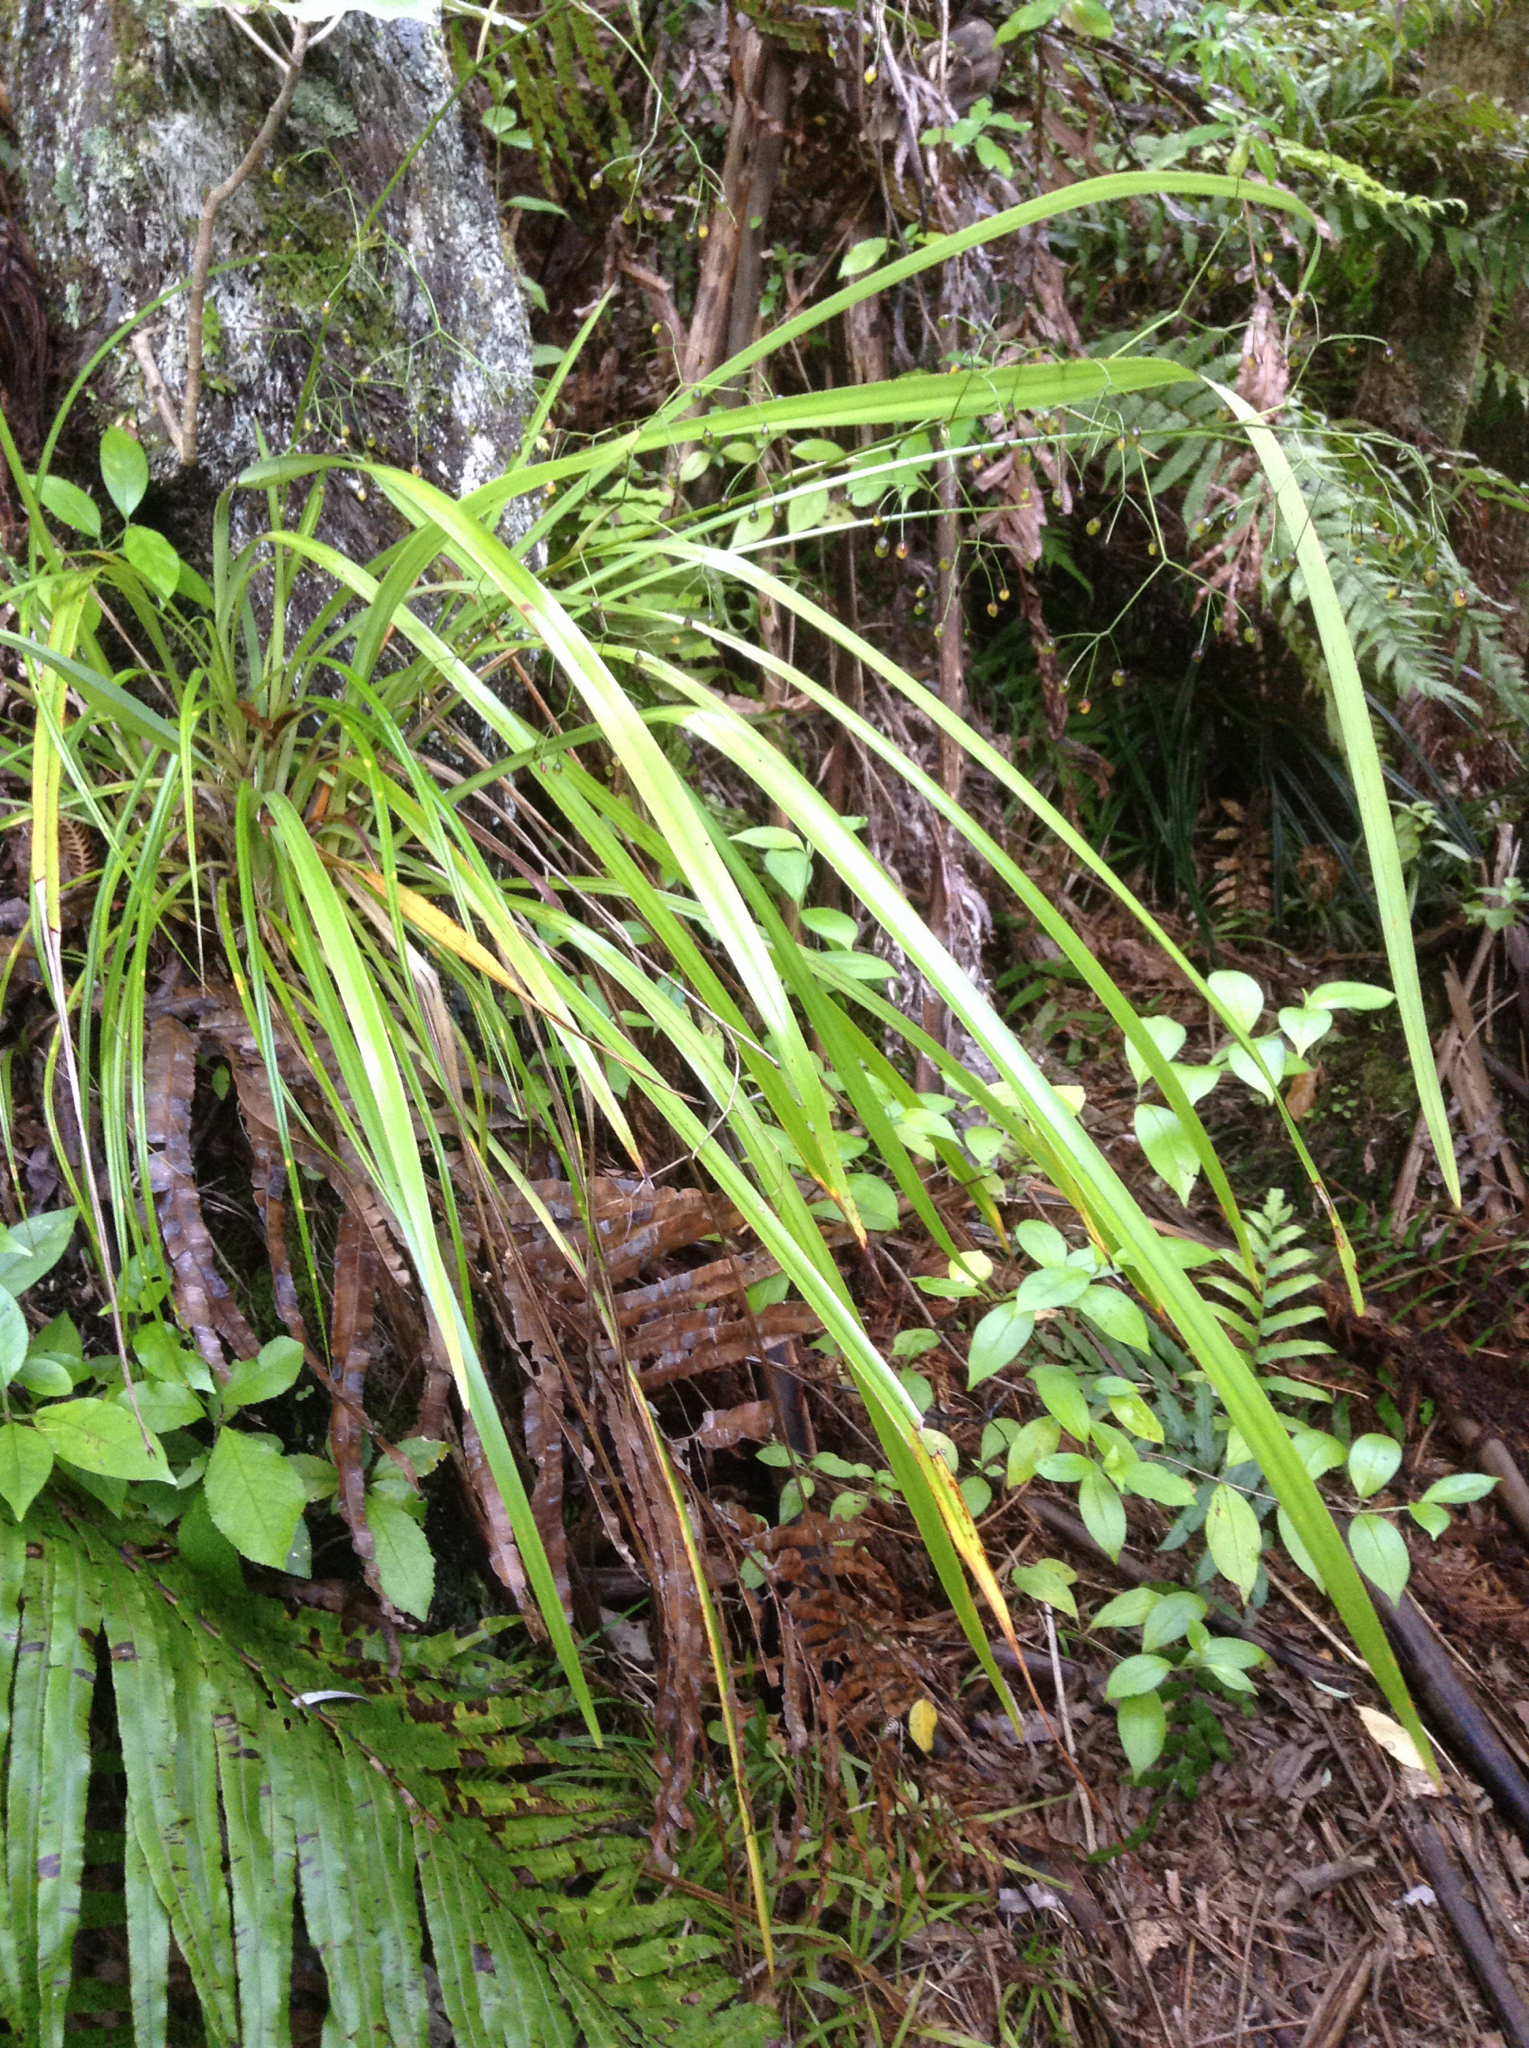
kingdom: Plantae
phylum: Tracheophyta
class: Liliopsida
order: Asparagales
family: Asphodelaceae
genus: Dianella
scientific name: Dianella nigra
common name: New zealand-blueberry
